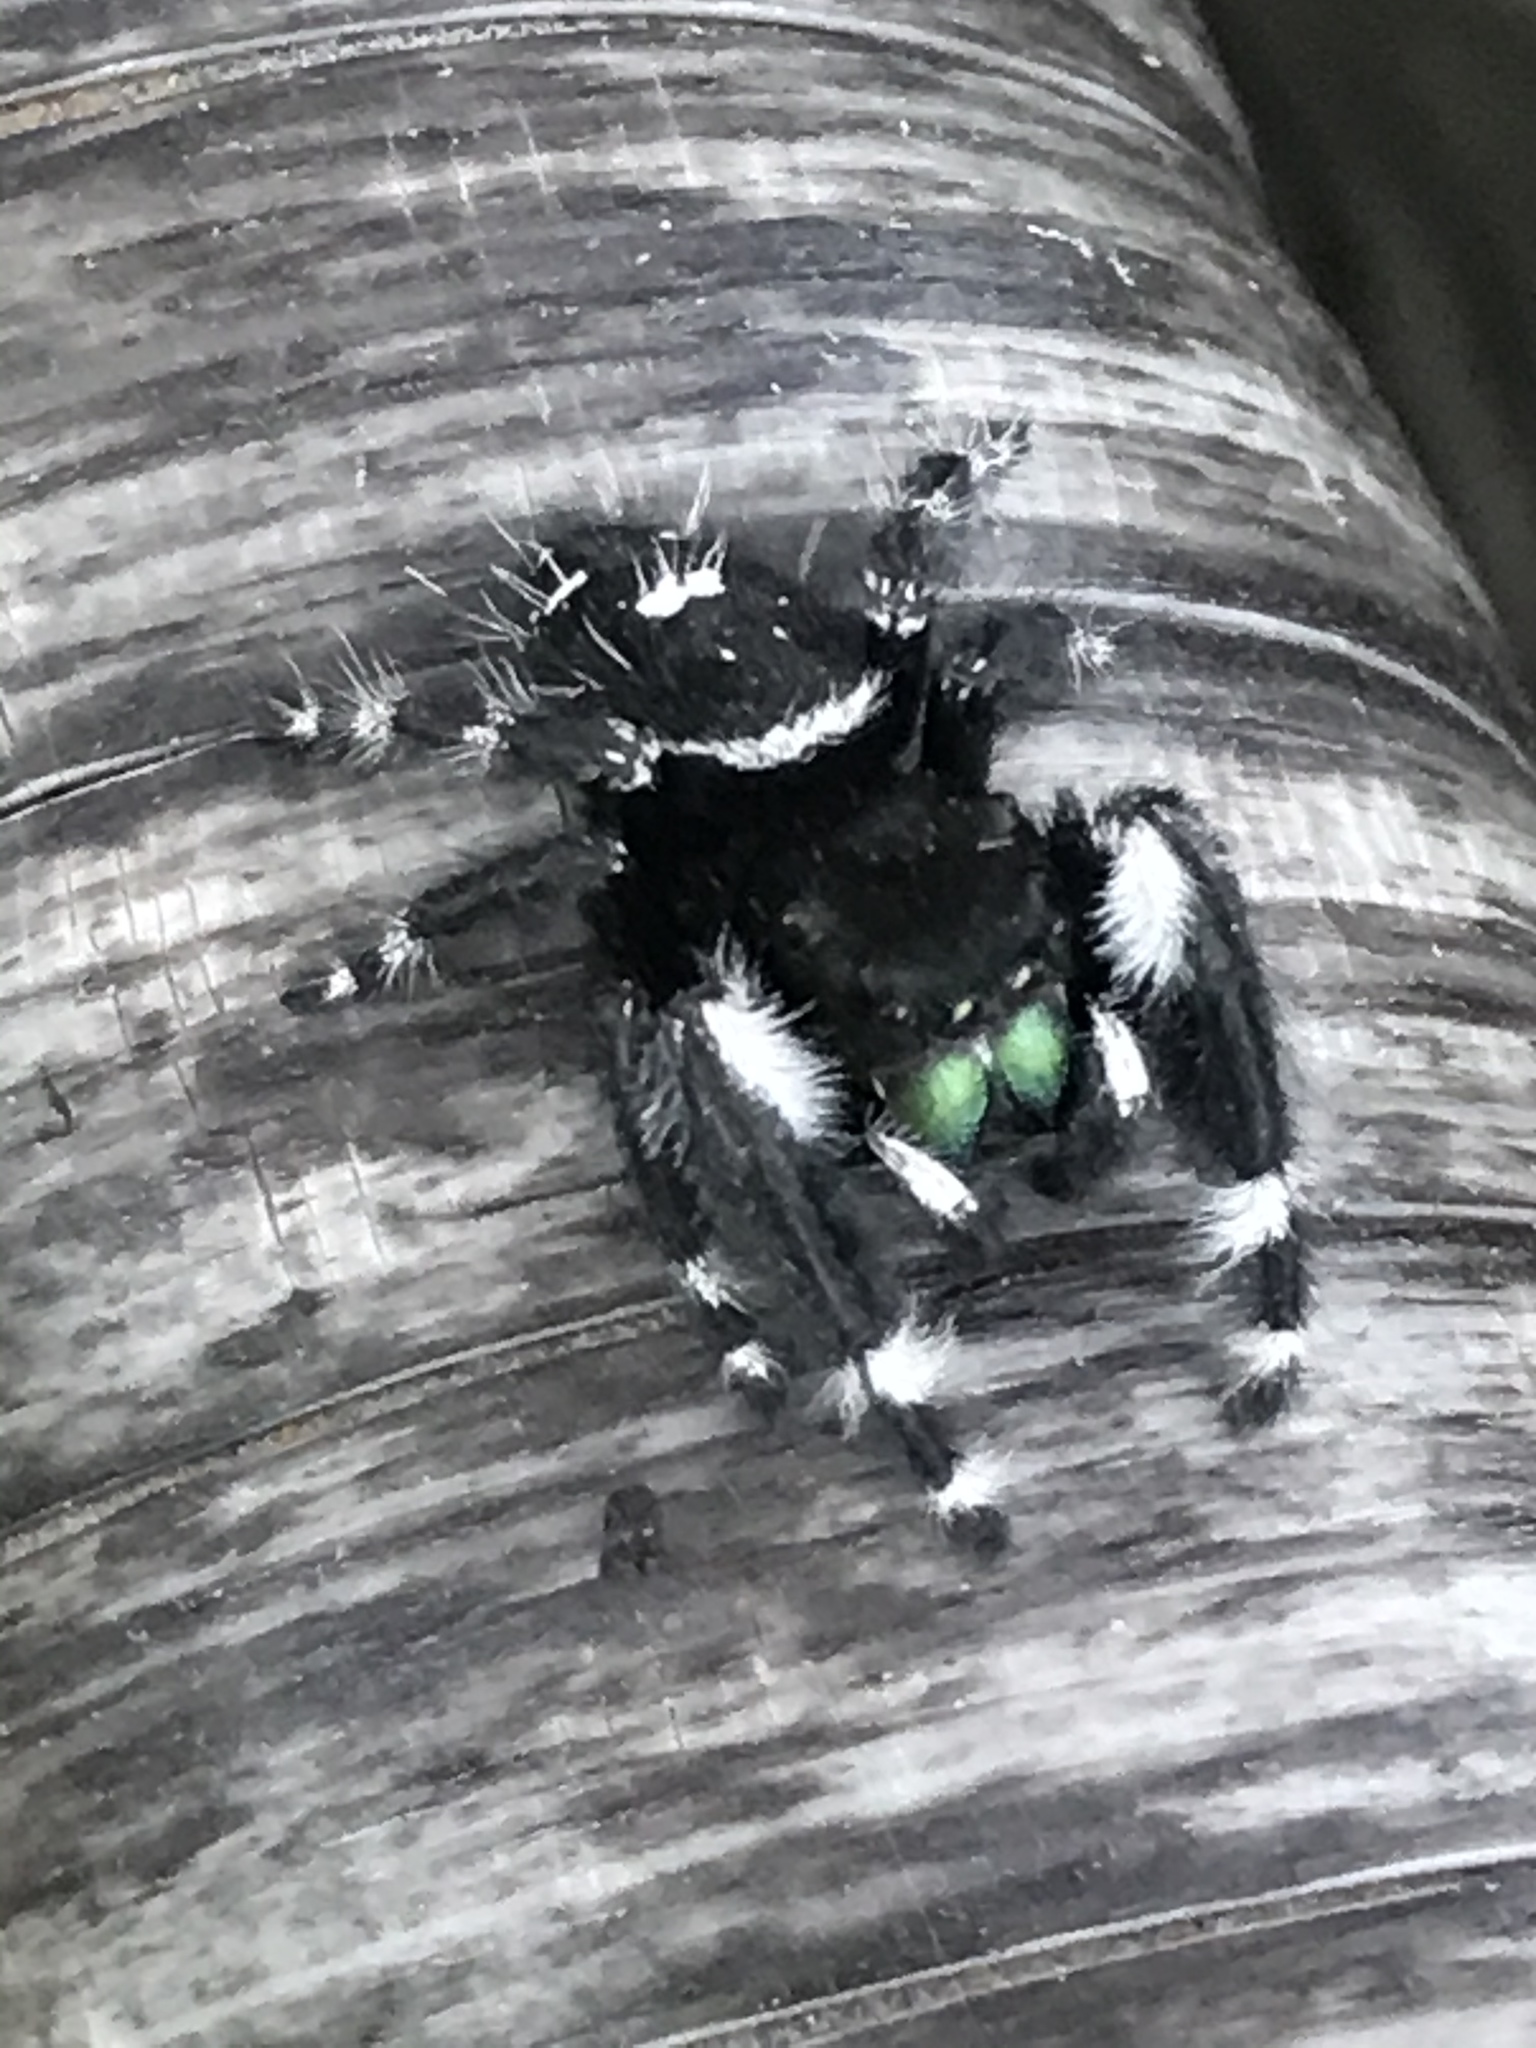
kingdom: Animalia
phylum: Arthropoda
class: Arachnida
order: Araneae
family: Salticidae
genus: Phidippus
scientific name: Phidippus audax
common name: Bold jumper
